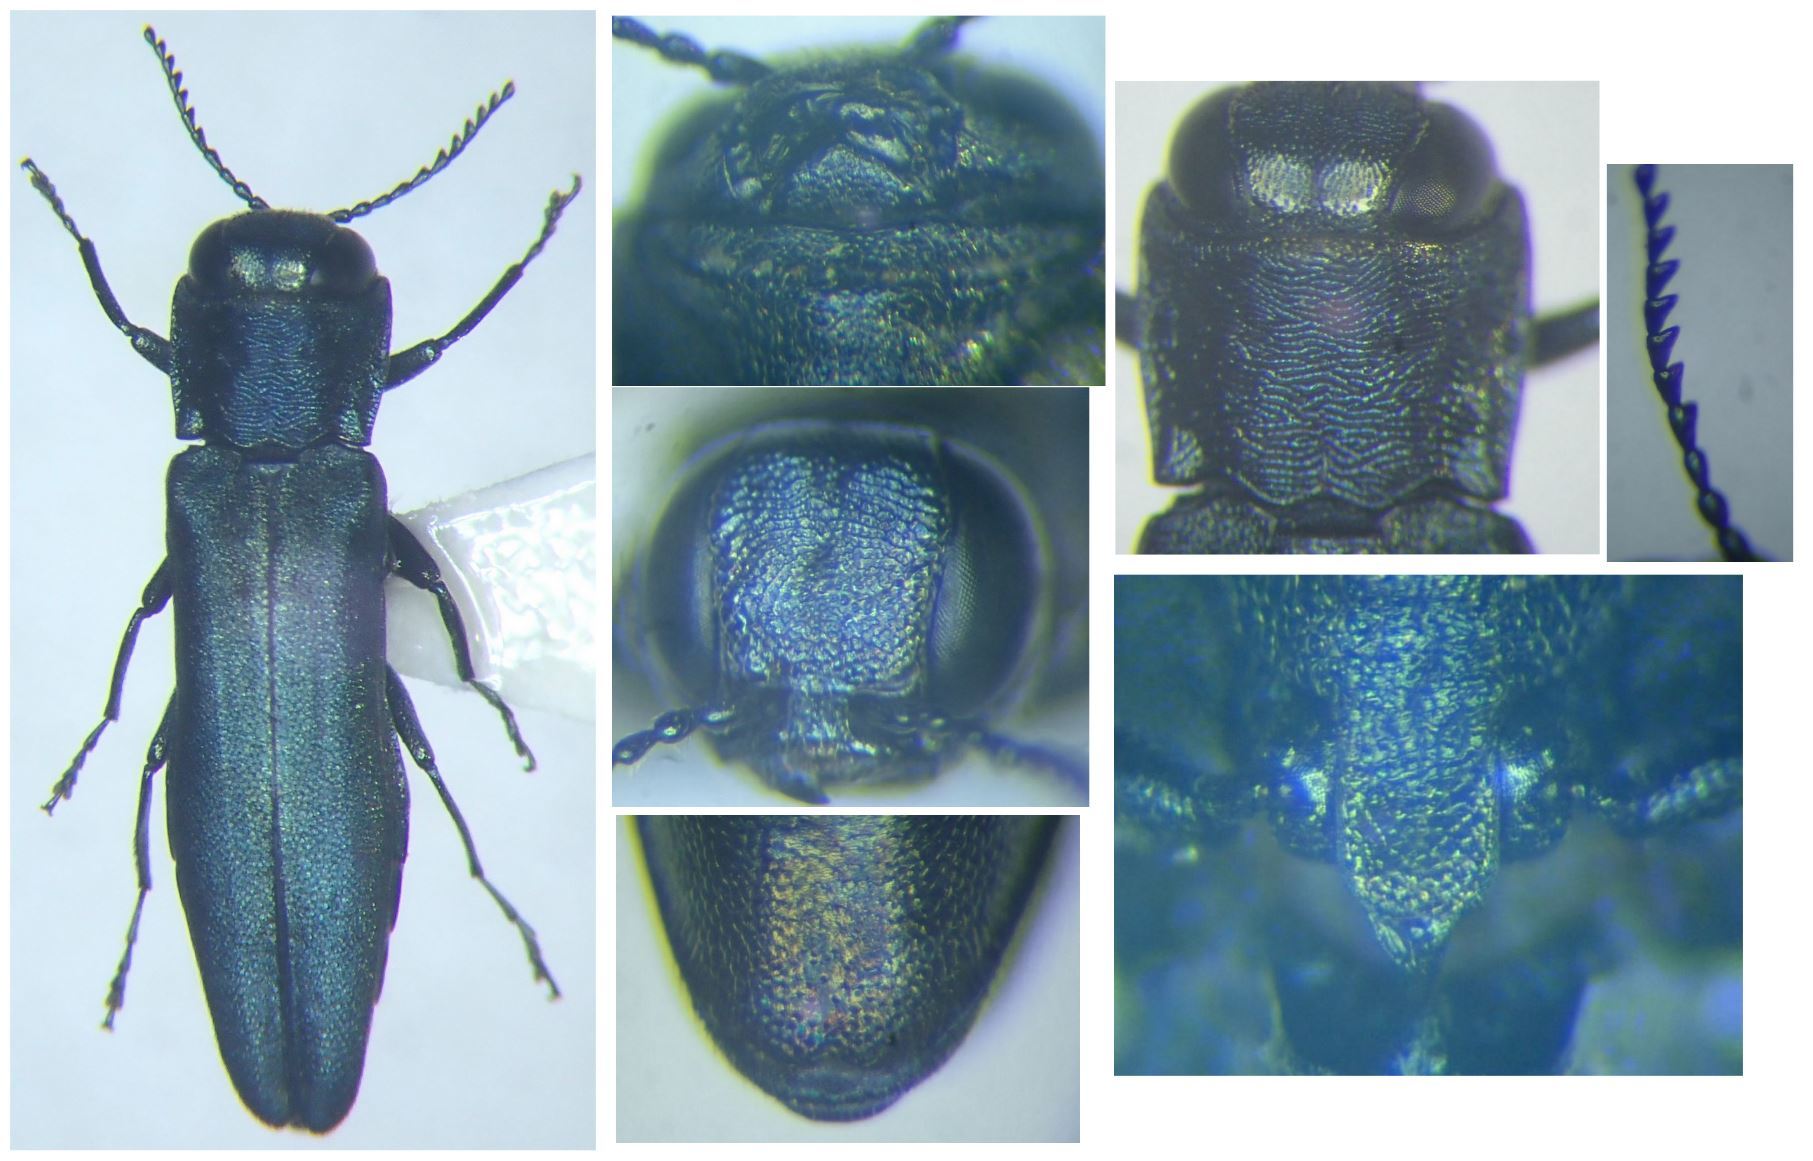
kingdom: Animalia
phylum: Arthropoda
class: Insecta
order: Coleoptera
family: Buprestidae
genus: Agrilus
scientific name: Agrilus sulcicollis
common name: European oak borer
